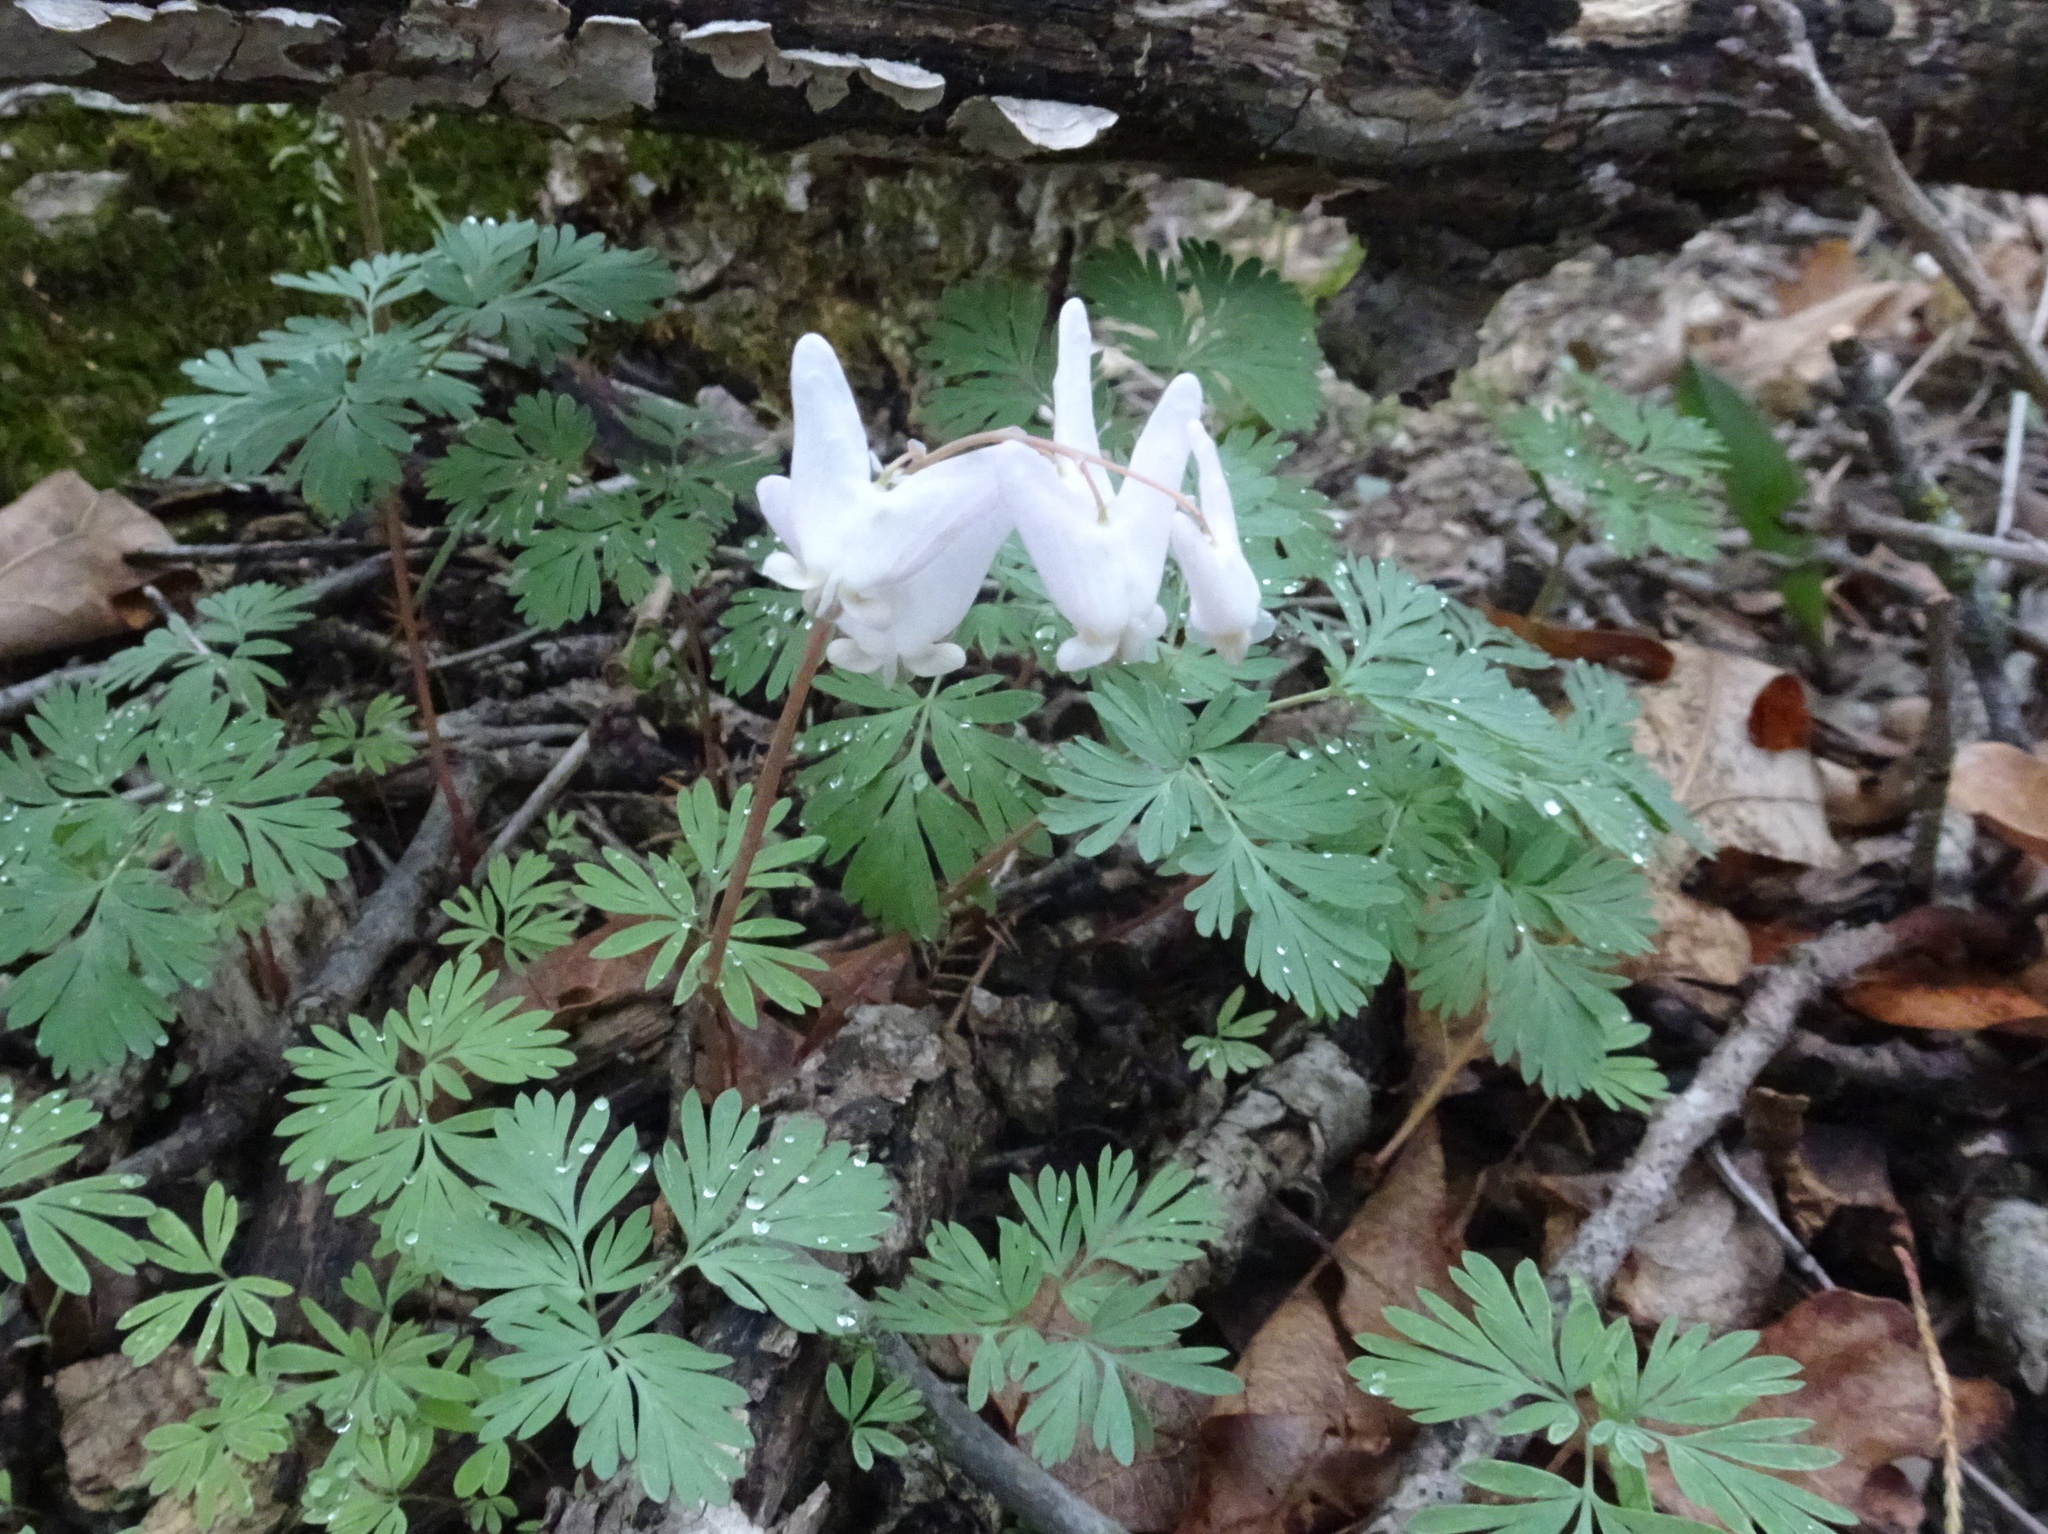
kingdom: Plantae
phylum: Tracheophyta
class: Magnoliopsida
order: Ranunculales
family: Papaveraceae
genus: Dicentra
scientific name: Dicentra cucullaria
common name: Dutchman's breeches
